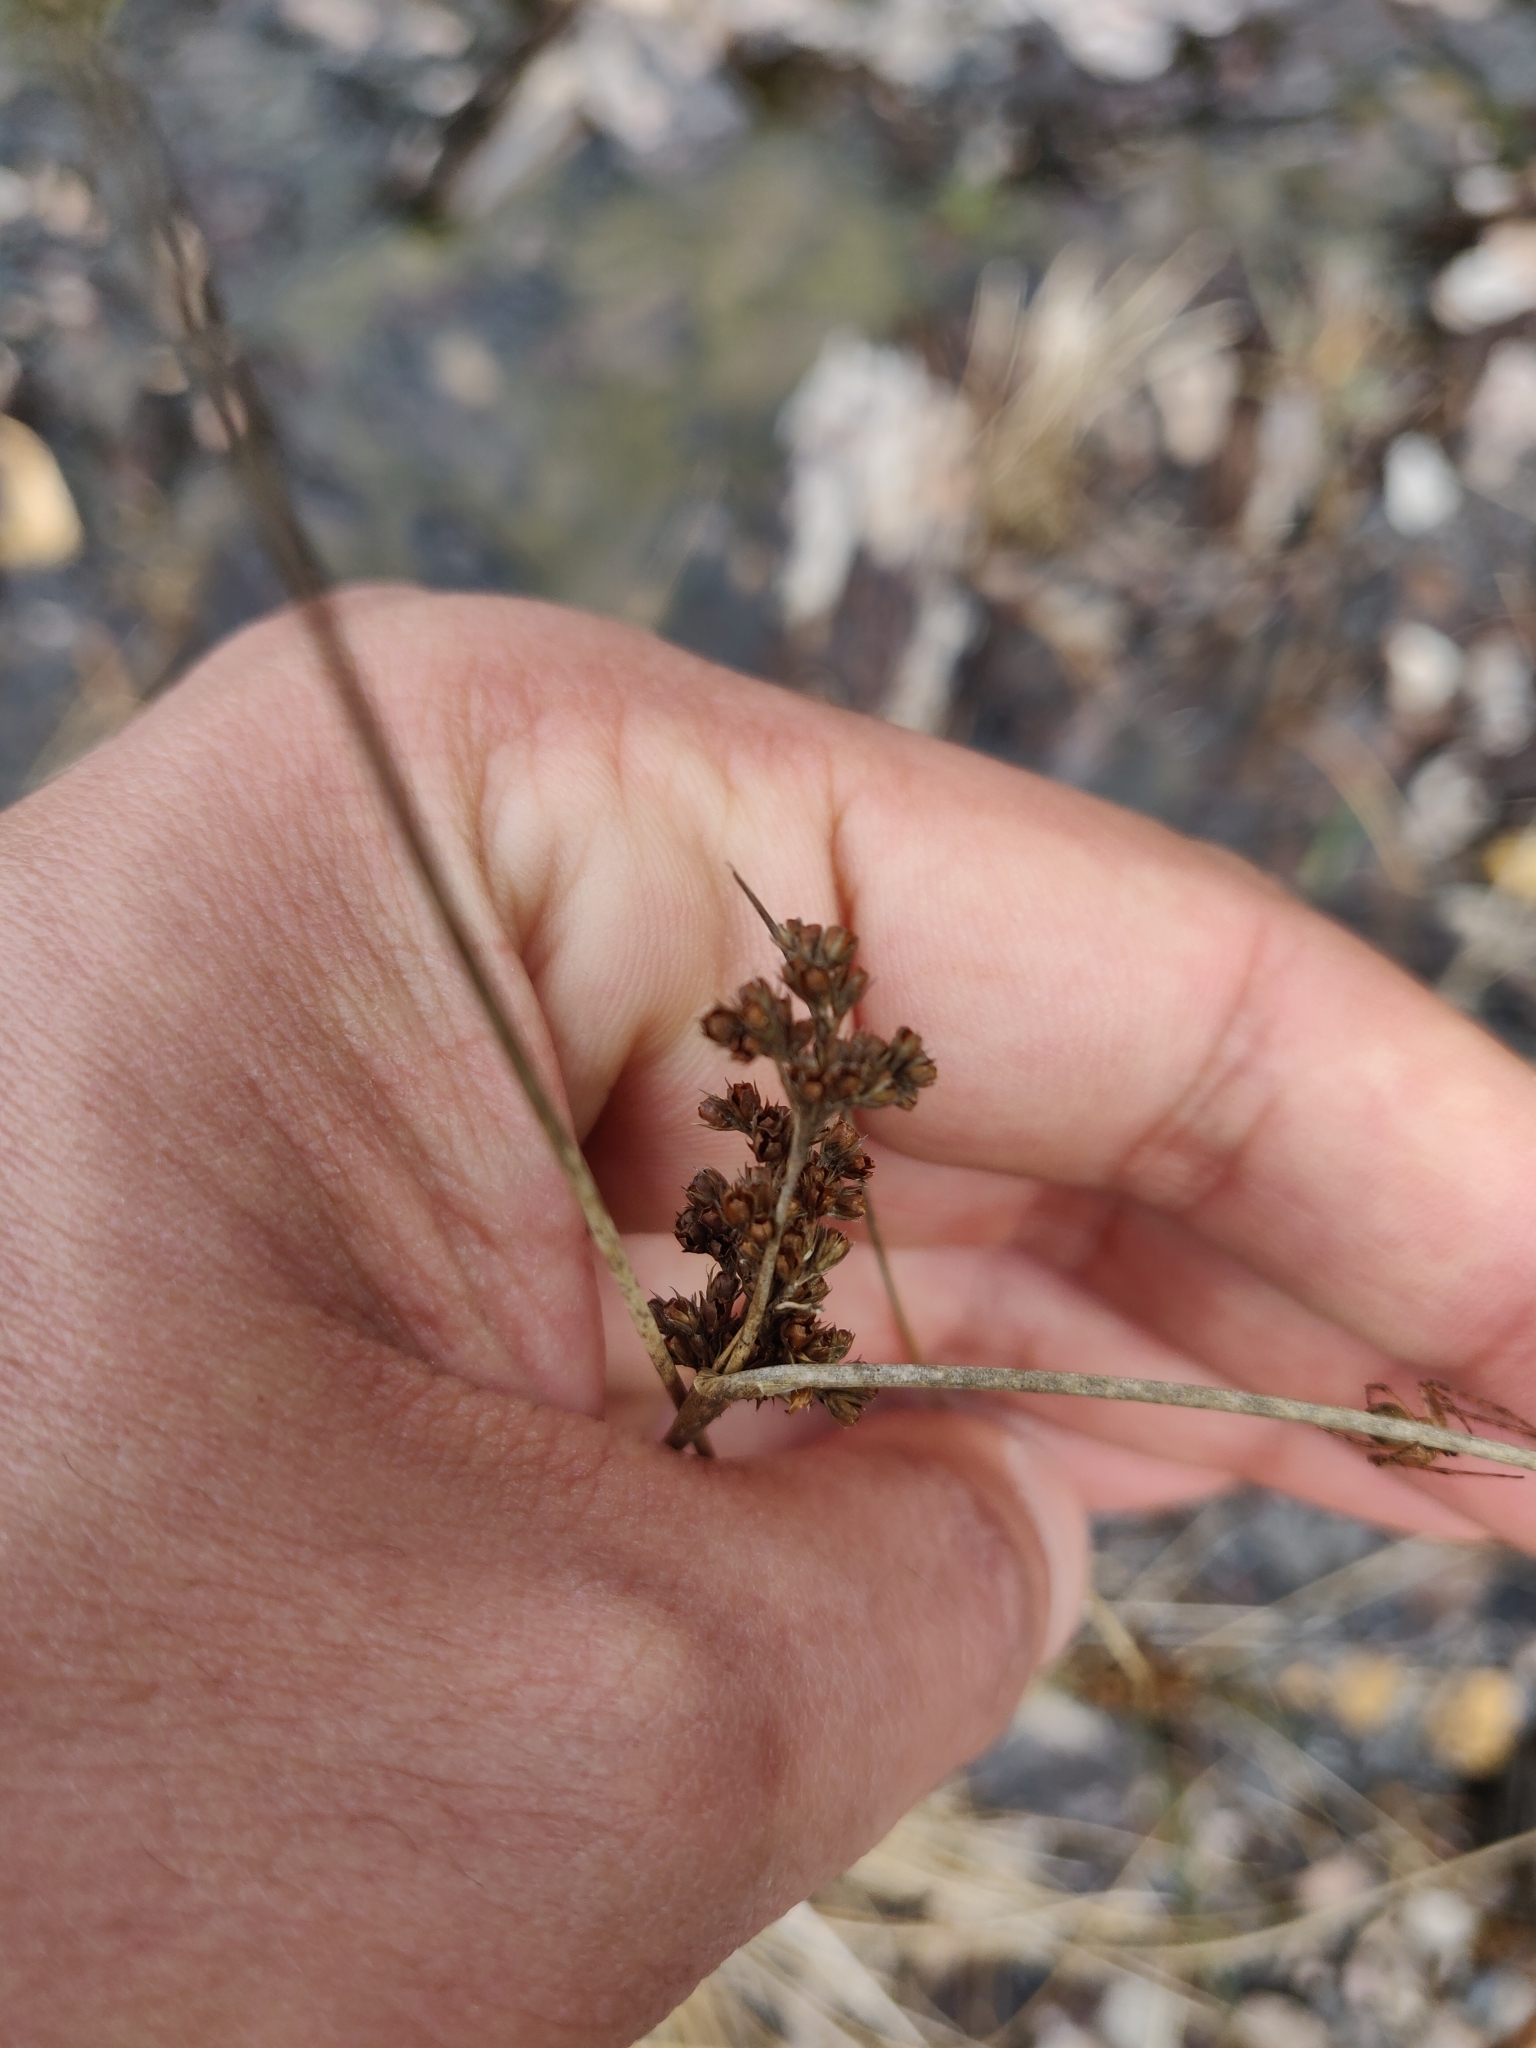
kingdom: Plantae
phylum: Tracheophyta
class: Liliopsida
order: Poales
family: Juncaceae
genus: Juncus
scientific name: Juncus effusus
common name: Soft rush
